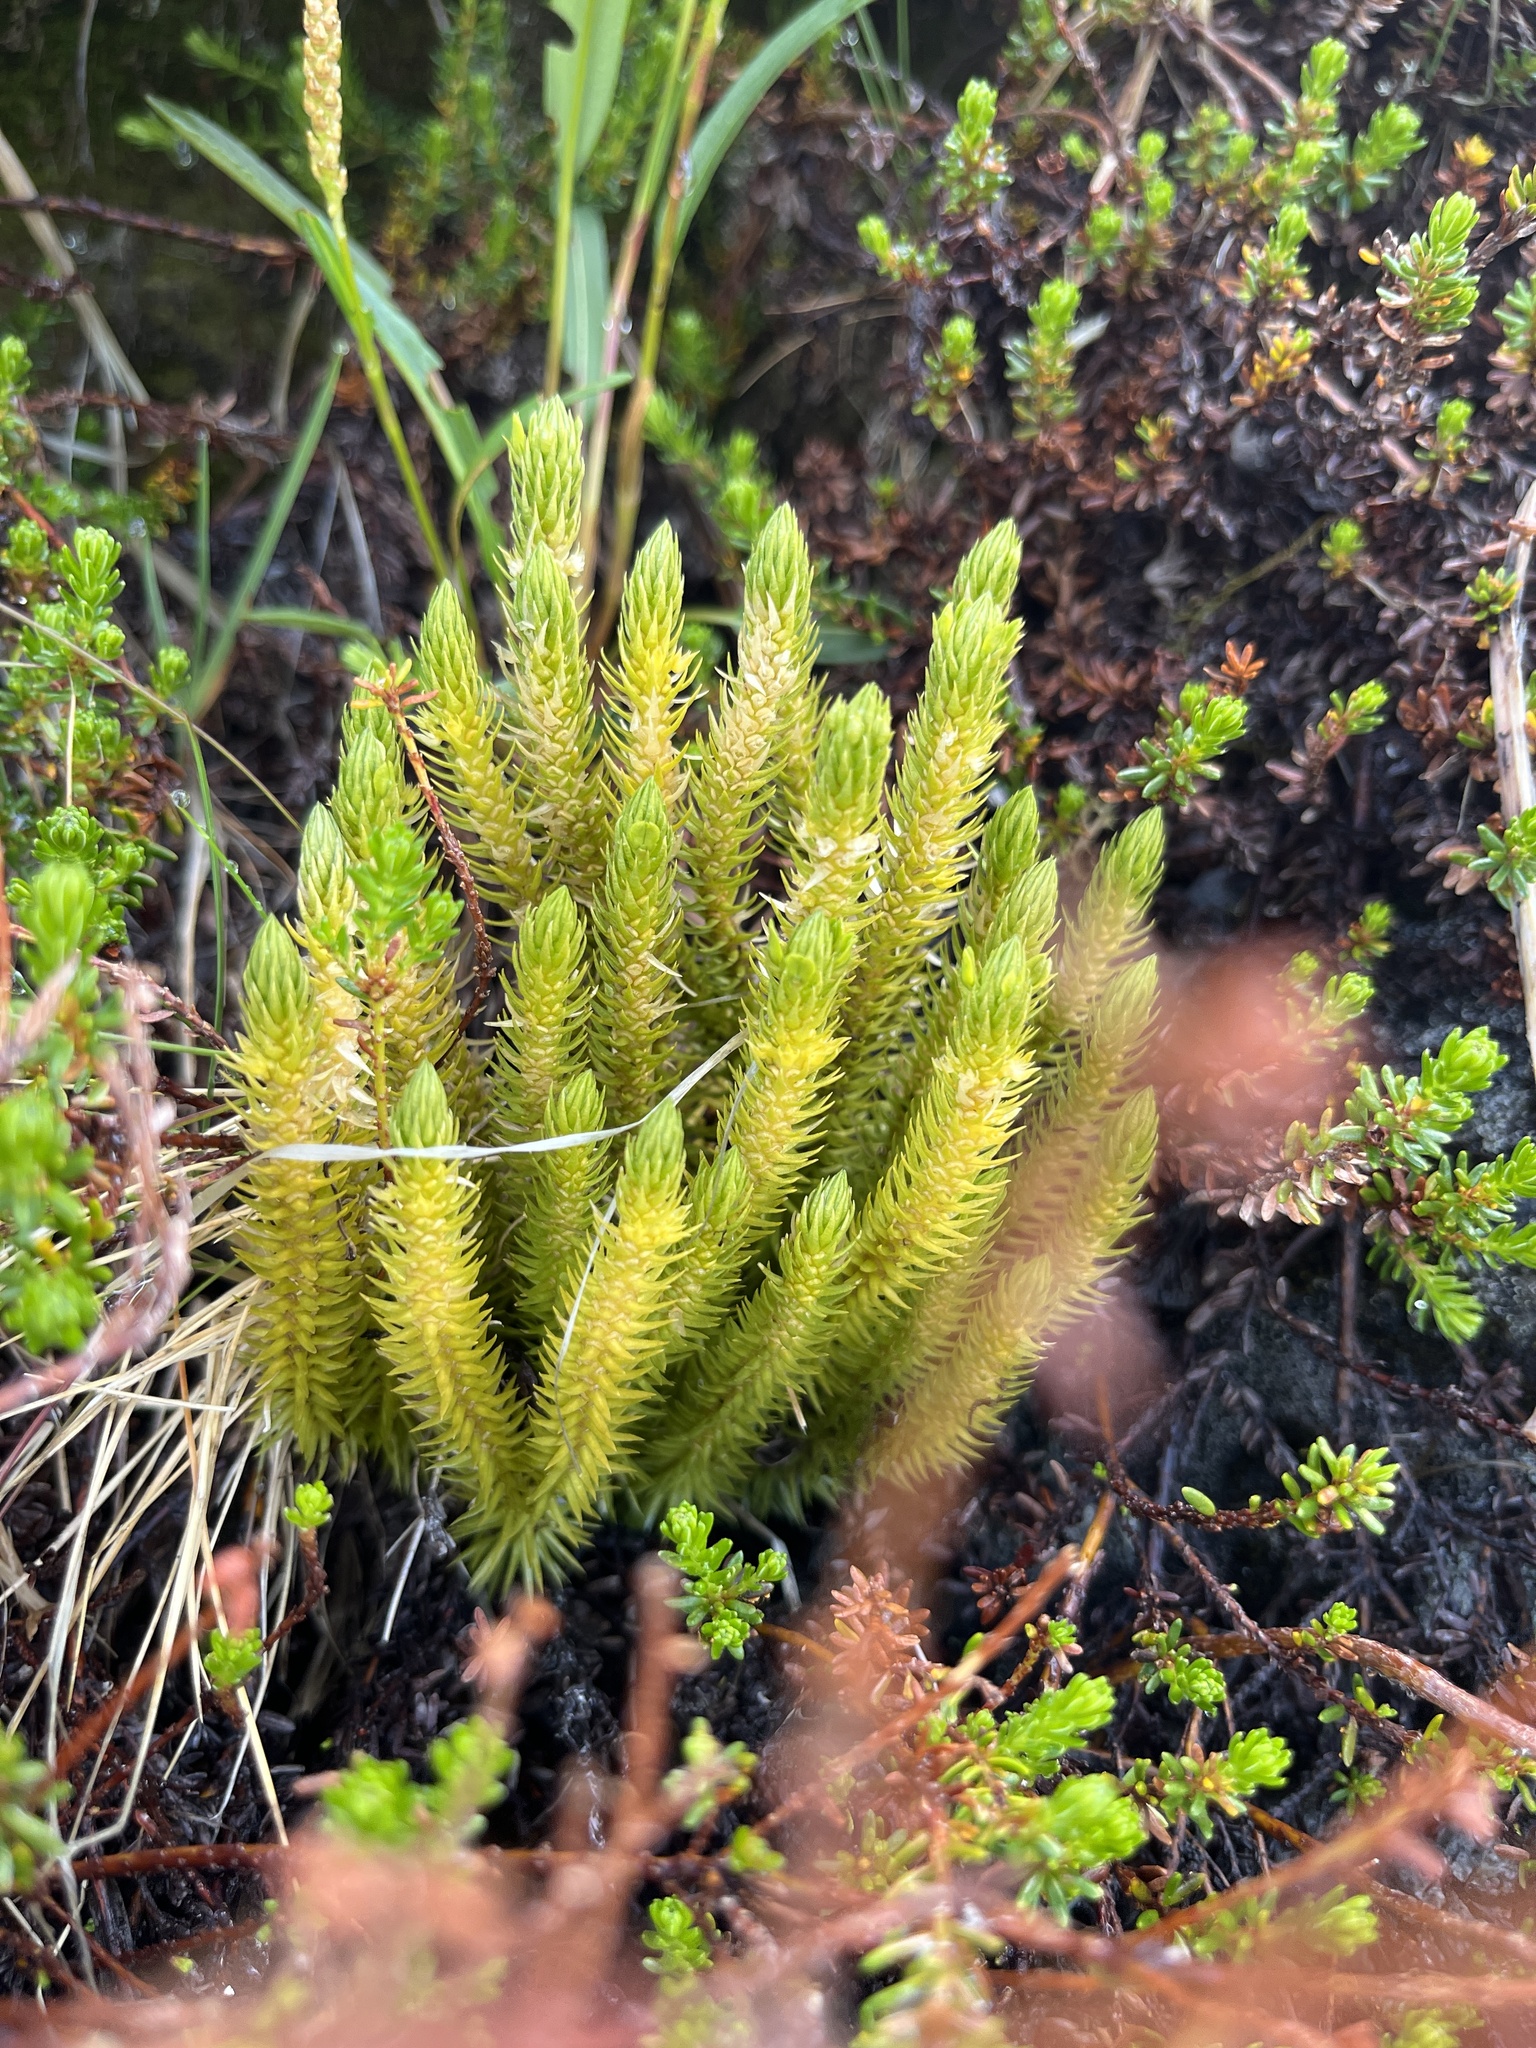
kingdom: Plantae
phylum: Tracheophyta
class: Lycopodiopsida
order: Lycopodiales
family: Lycopodiaceae
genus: Huperzia
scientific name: Huperzia selago
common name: Northern firmoss
